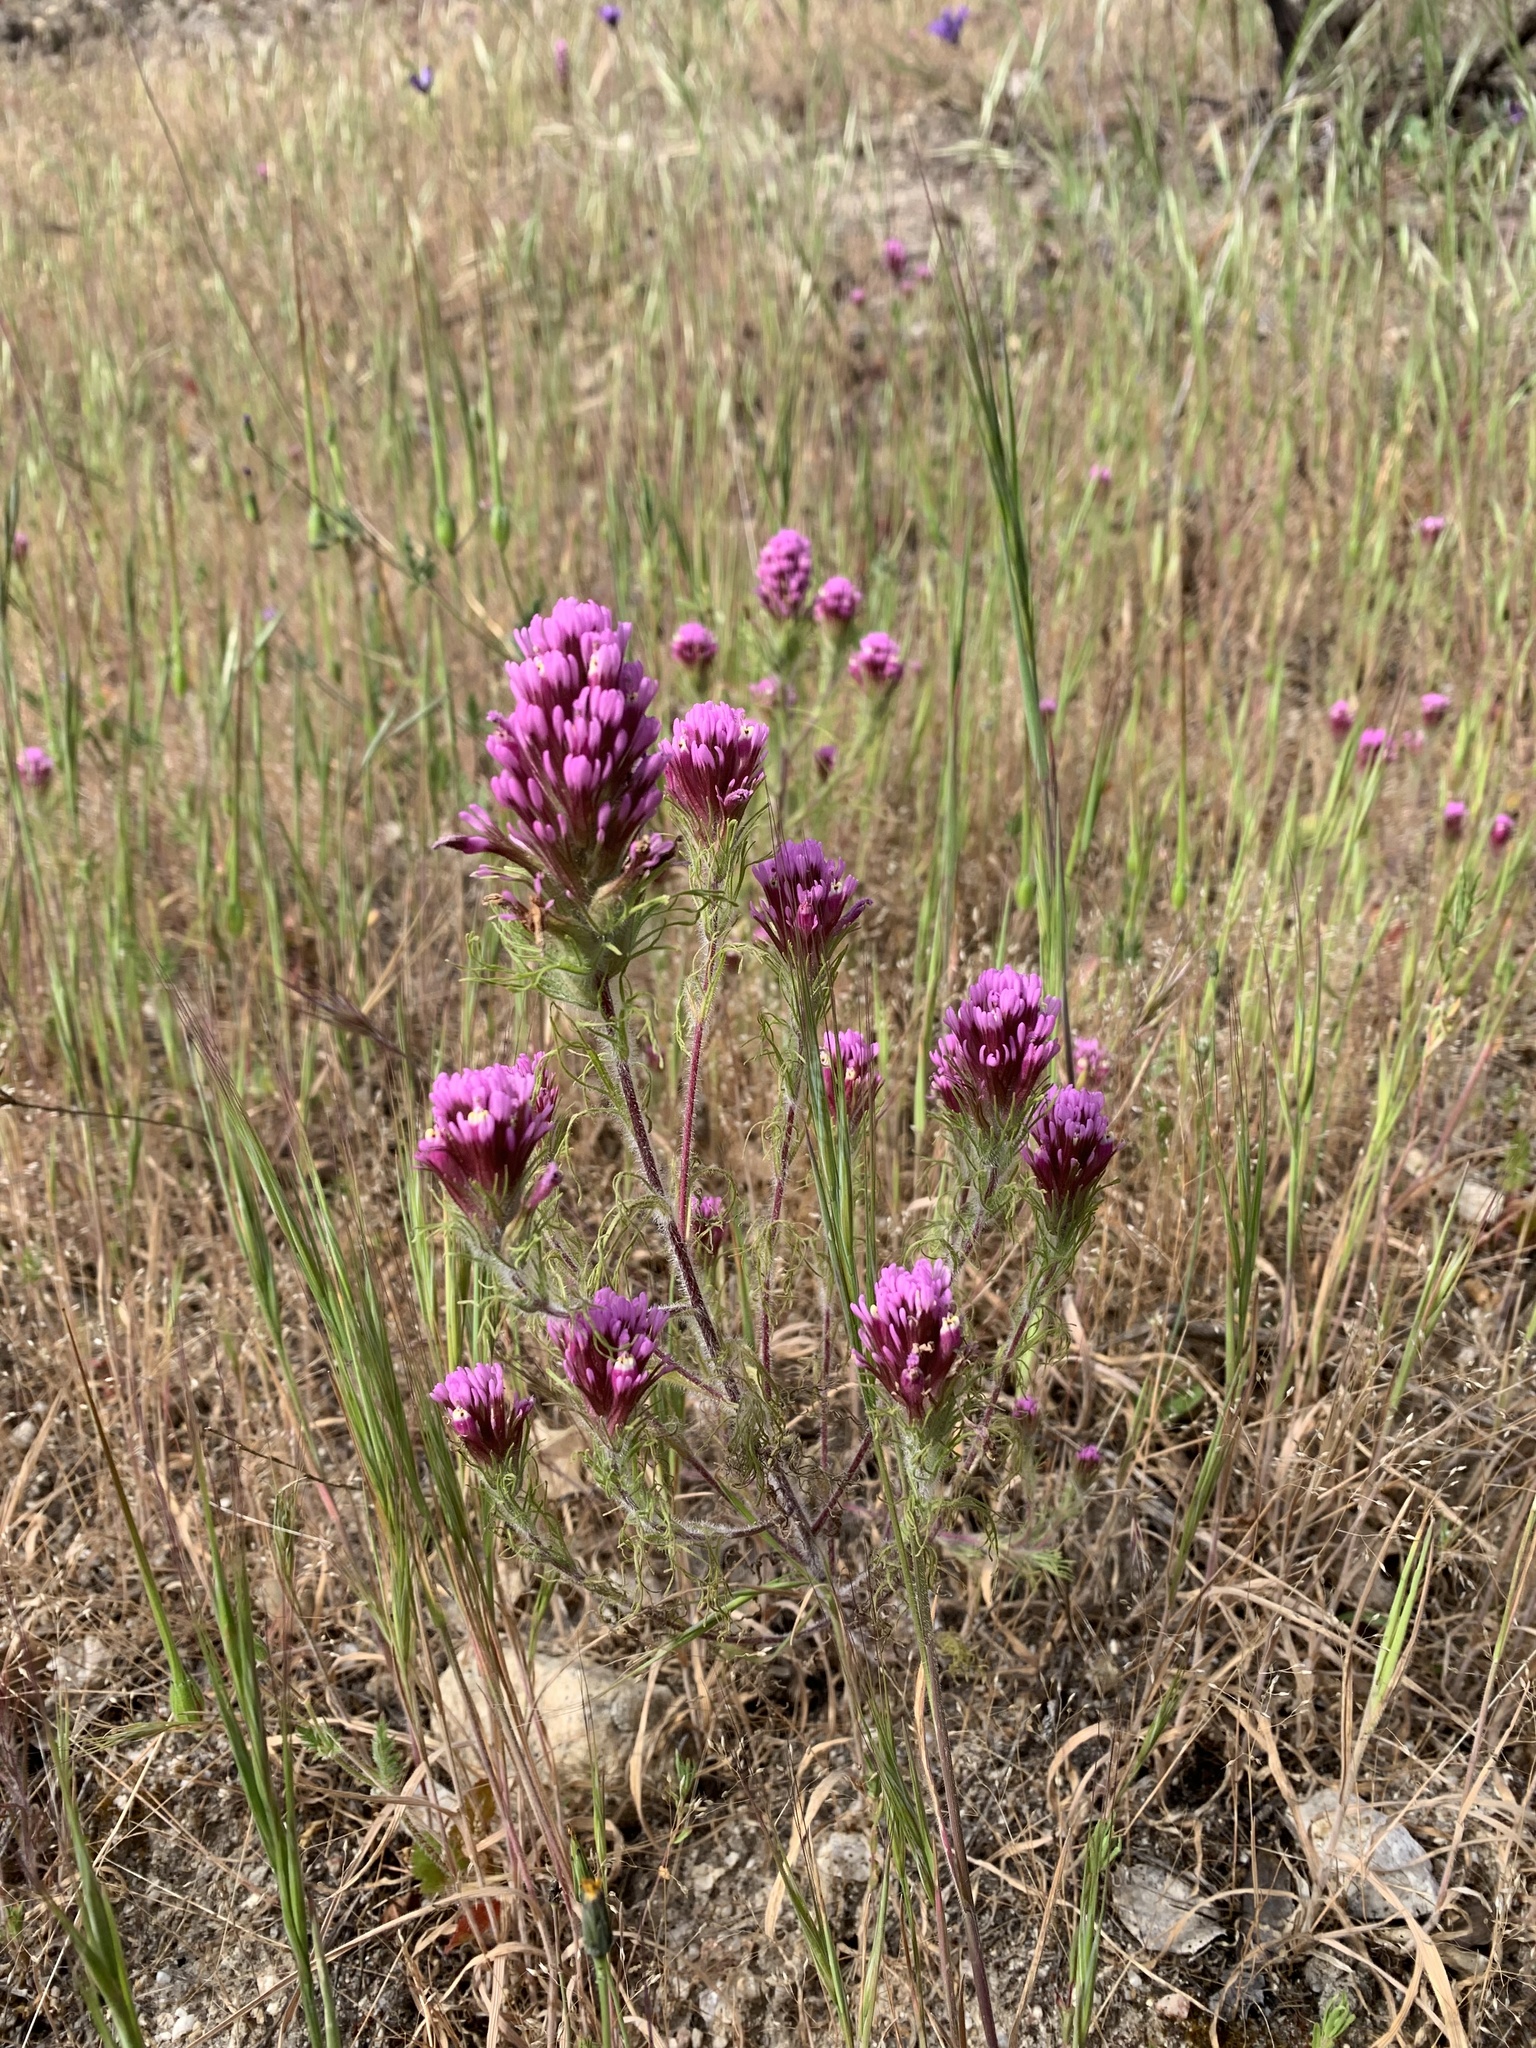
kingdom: Plantae
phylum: Tracheophyta
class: Magnoliopsida
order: Lamiales
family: Orobanchaceae
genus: Castilleja
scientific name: Castilleja exserta
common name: Purple owl-clover
